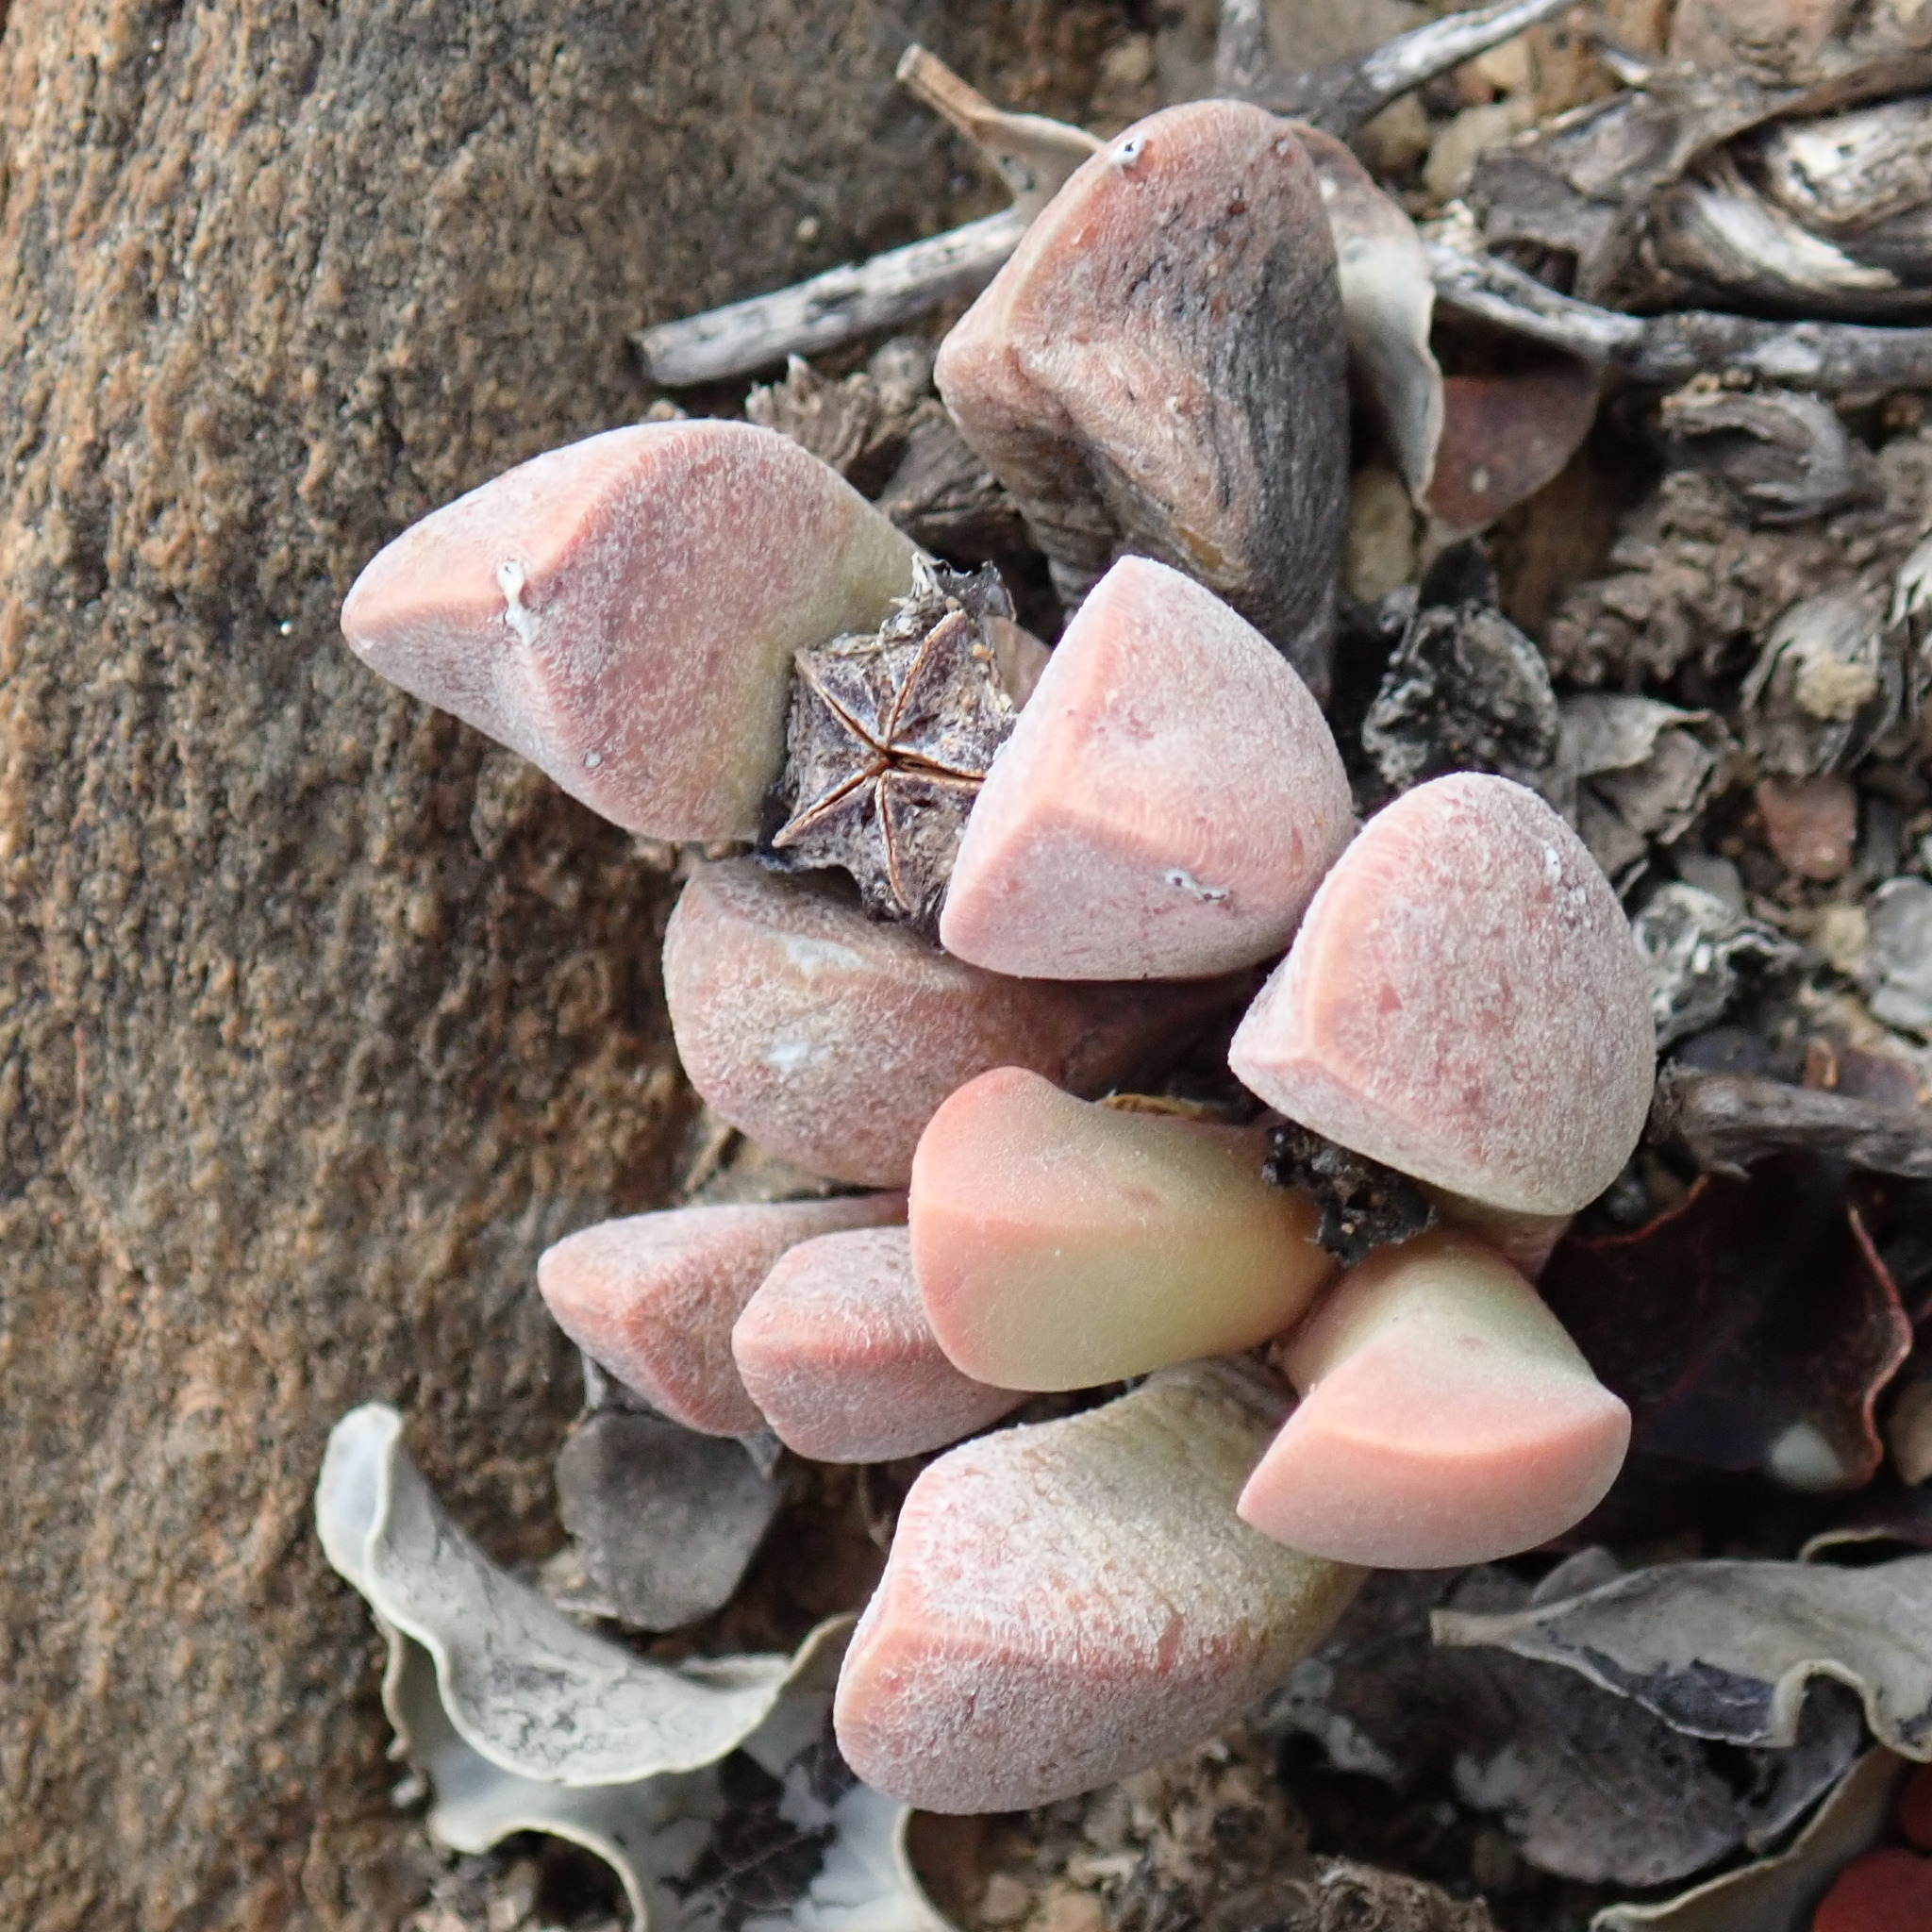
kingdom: Plantae
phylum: Tracheophyta
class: Magnoliopsida
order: Caryophyllales
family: Aizoaceae
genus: Cerochlamys
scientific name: Cerochlamys pachyphylla
